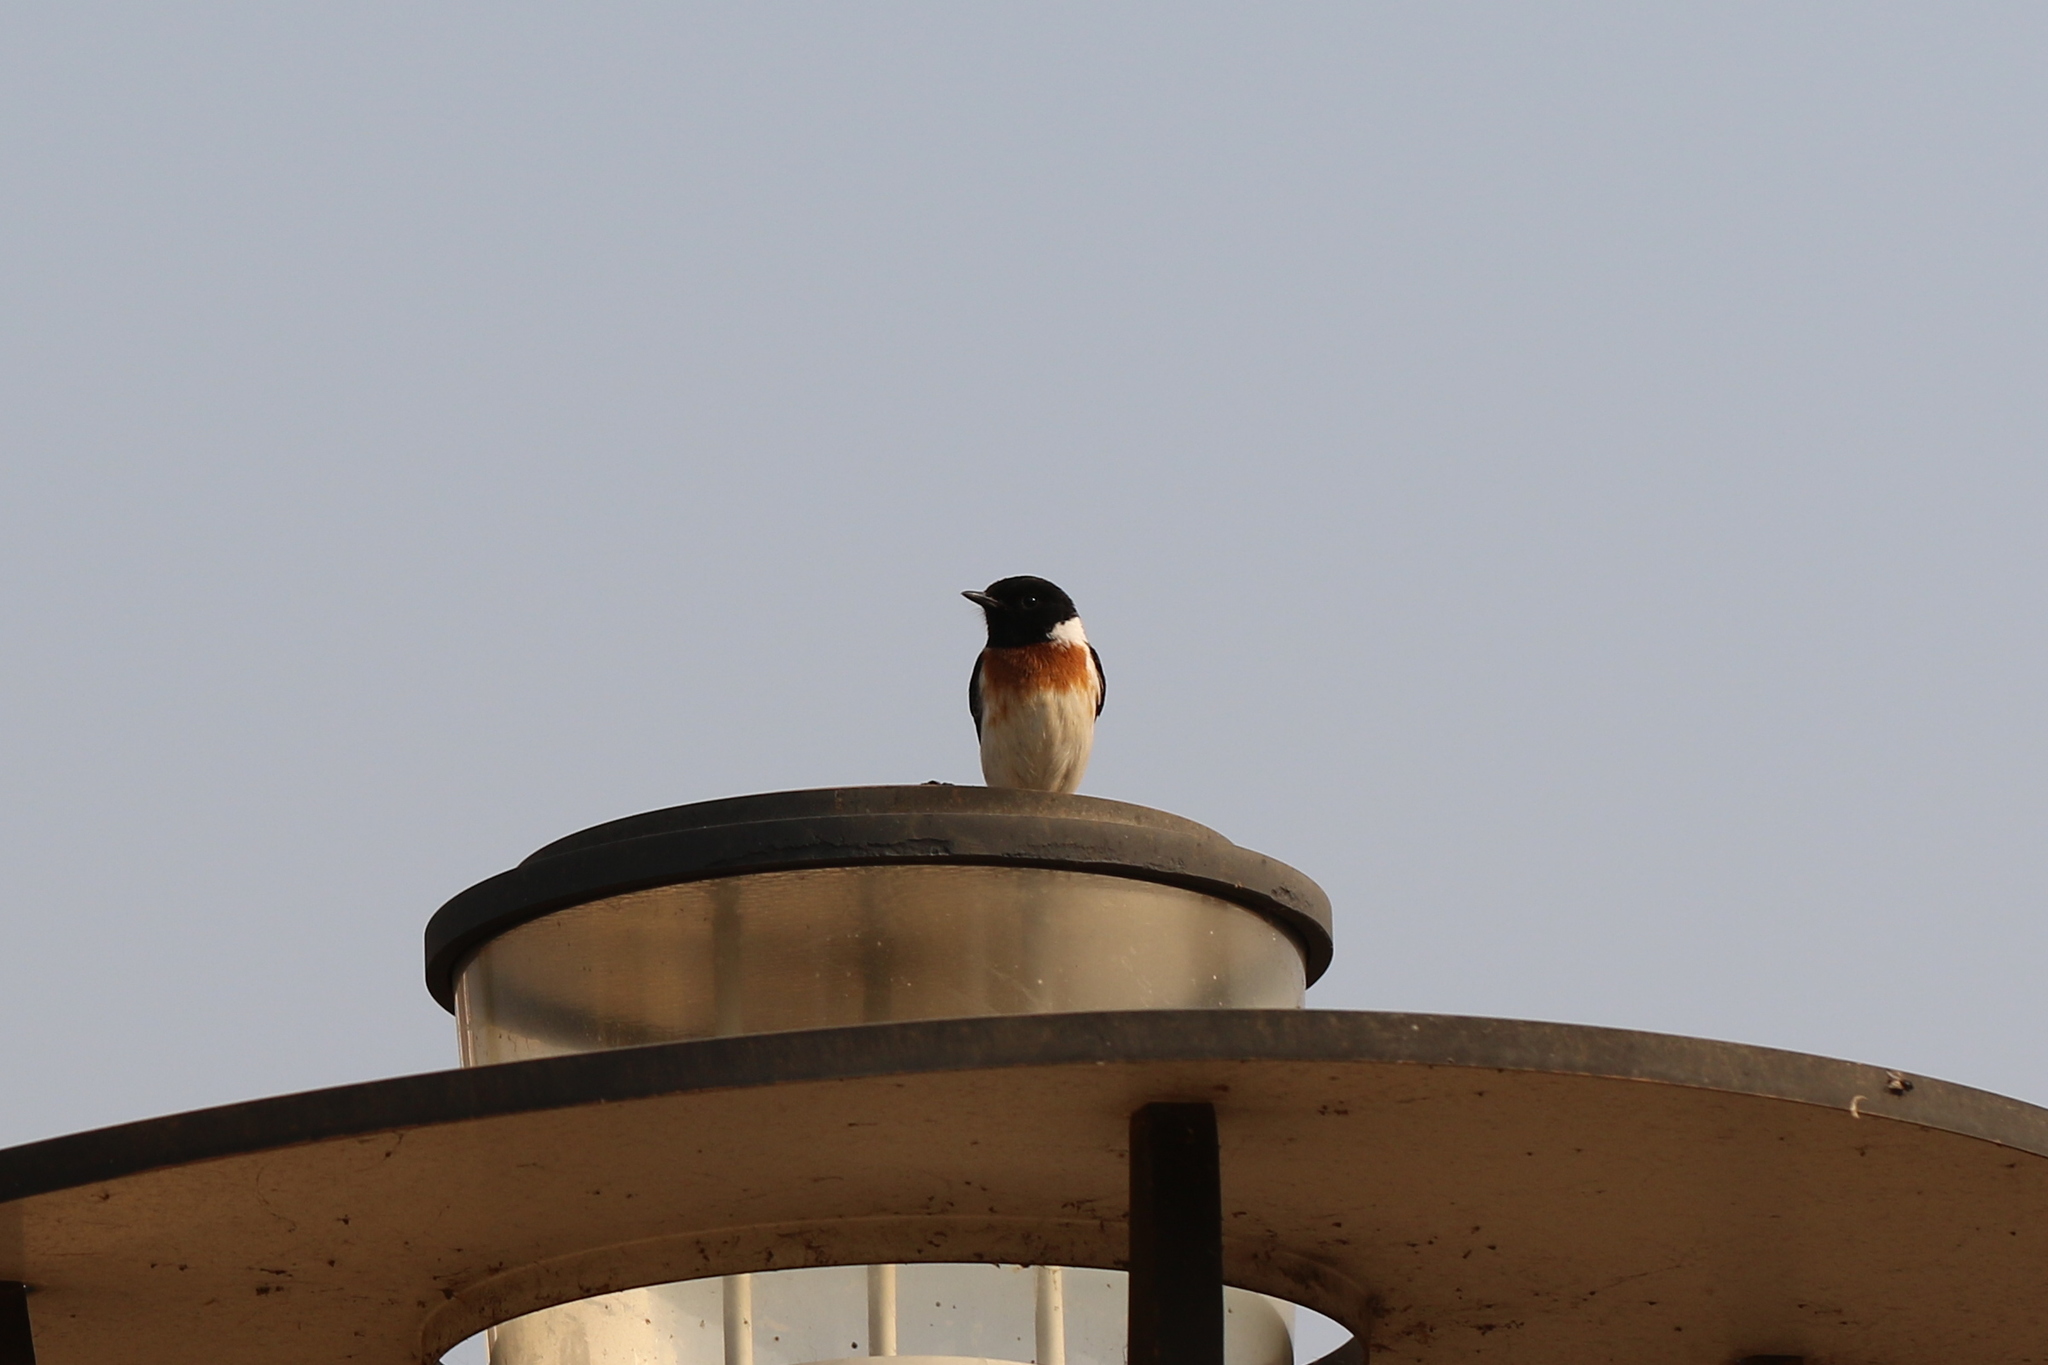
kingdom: Animalia
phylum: Chordata
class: Aves
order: Passeriformes
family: Muscicapidae
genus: Saxicola
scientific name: Saxicola torquatus
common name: African stonechat
